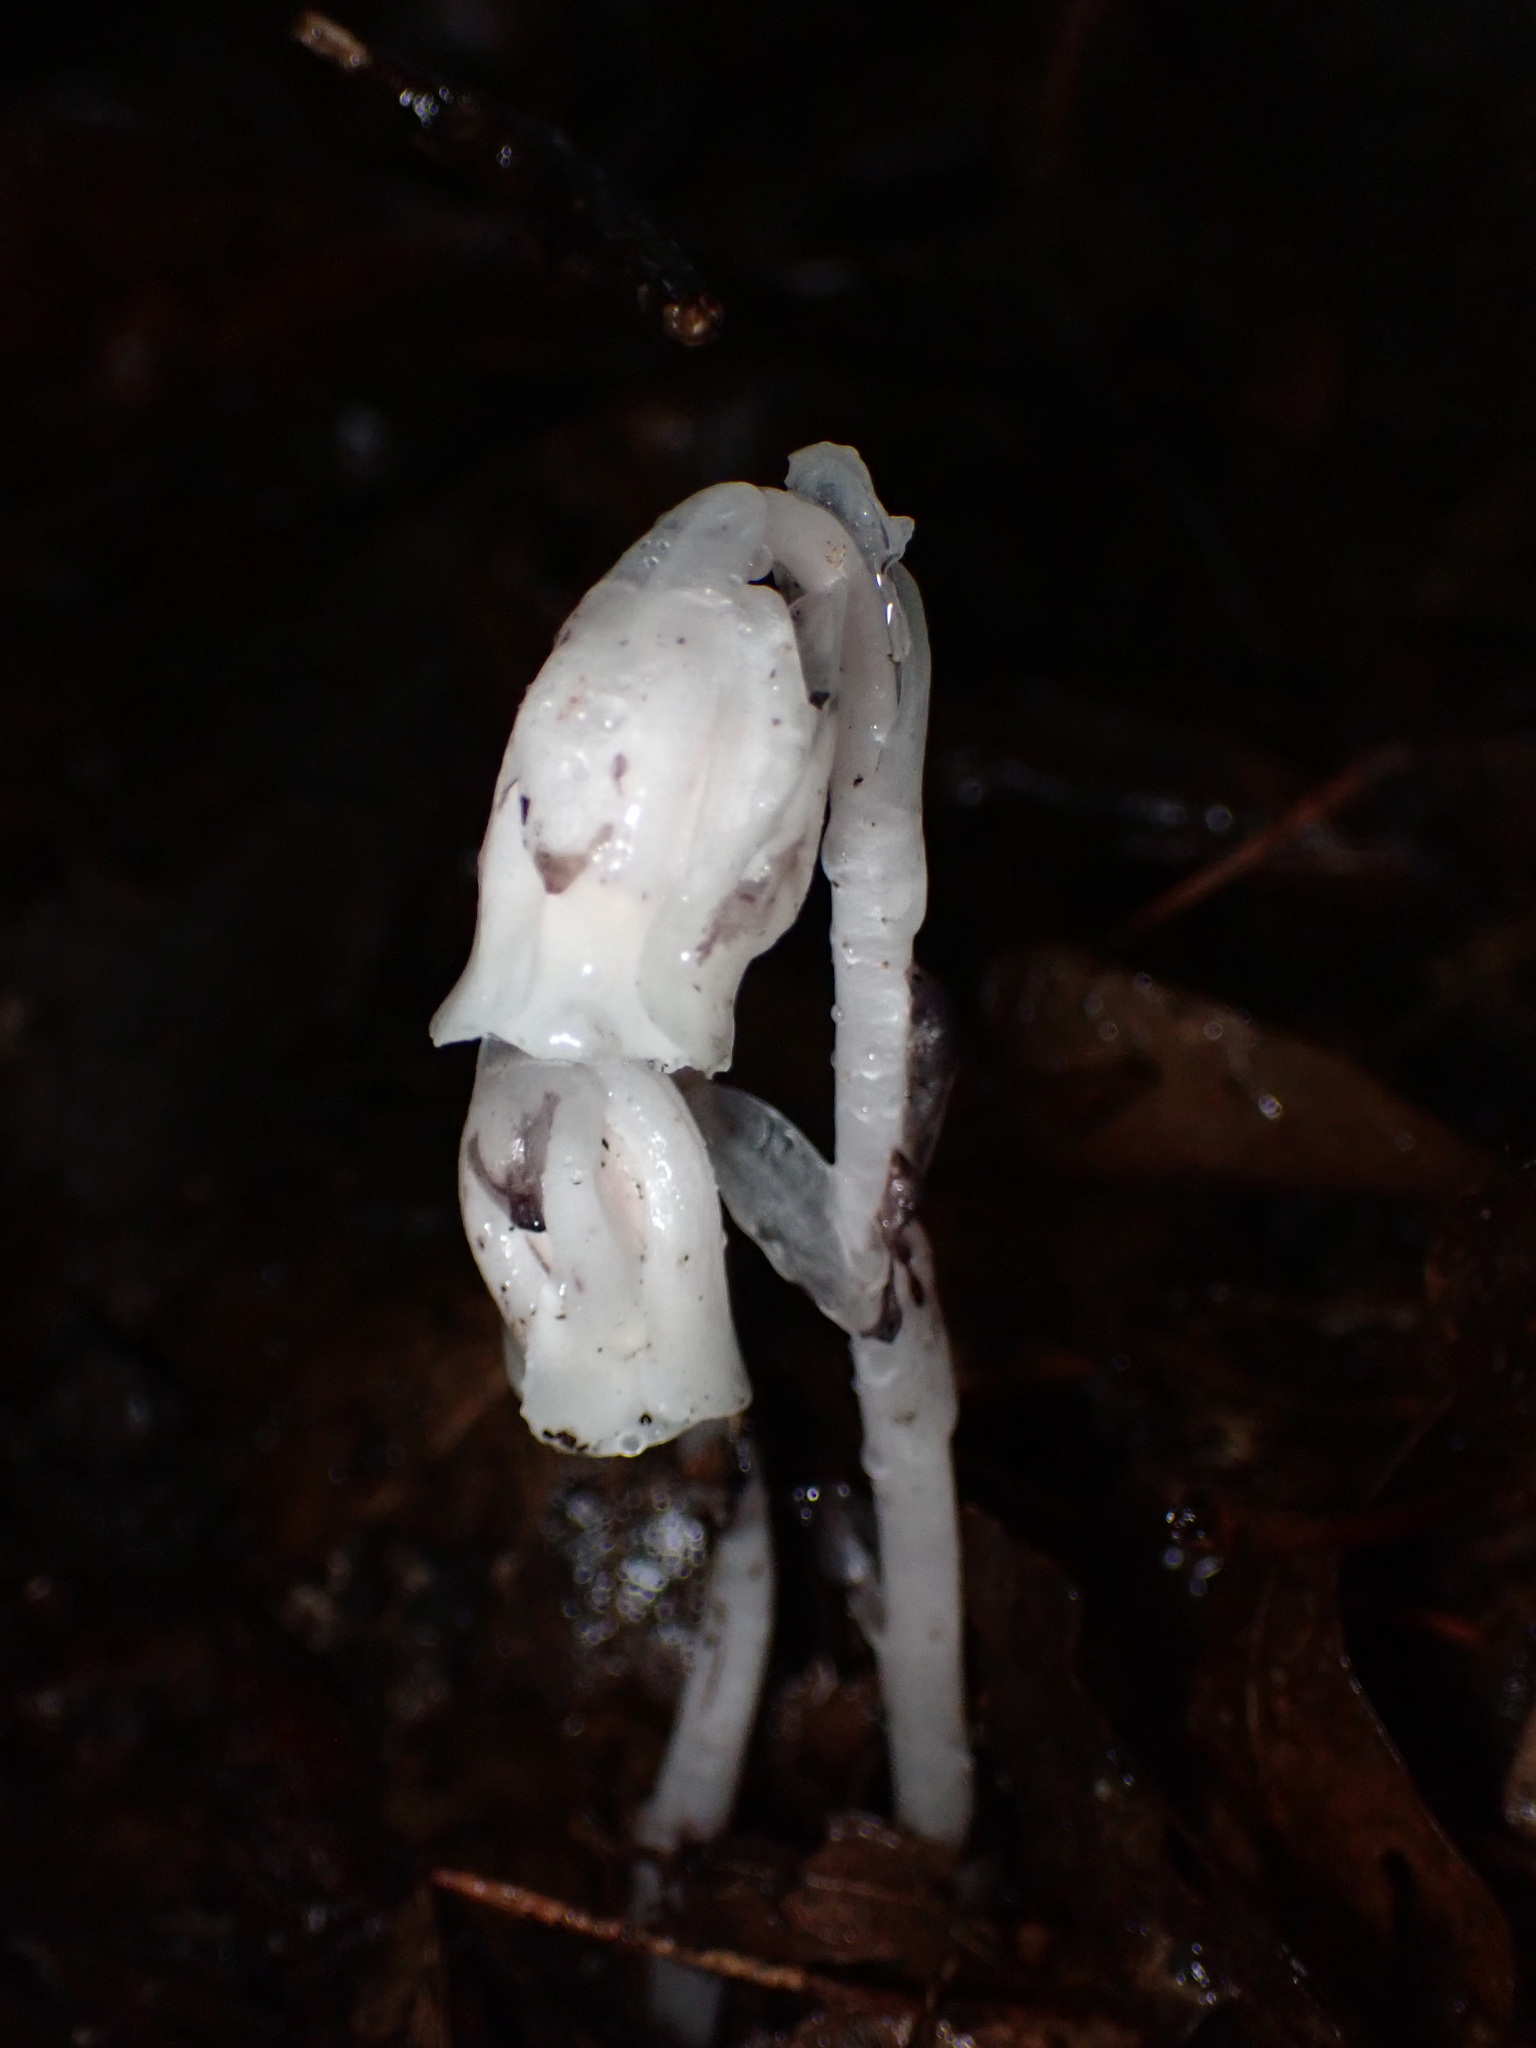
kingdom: Plantae
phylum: Tracheophyta
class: Magnoliopsida
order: Ericales
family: Ericaceae
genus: Monotropa
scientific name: Monotropa uniflora
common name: Convulsion root
